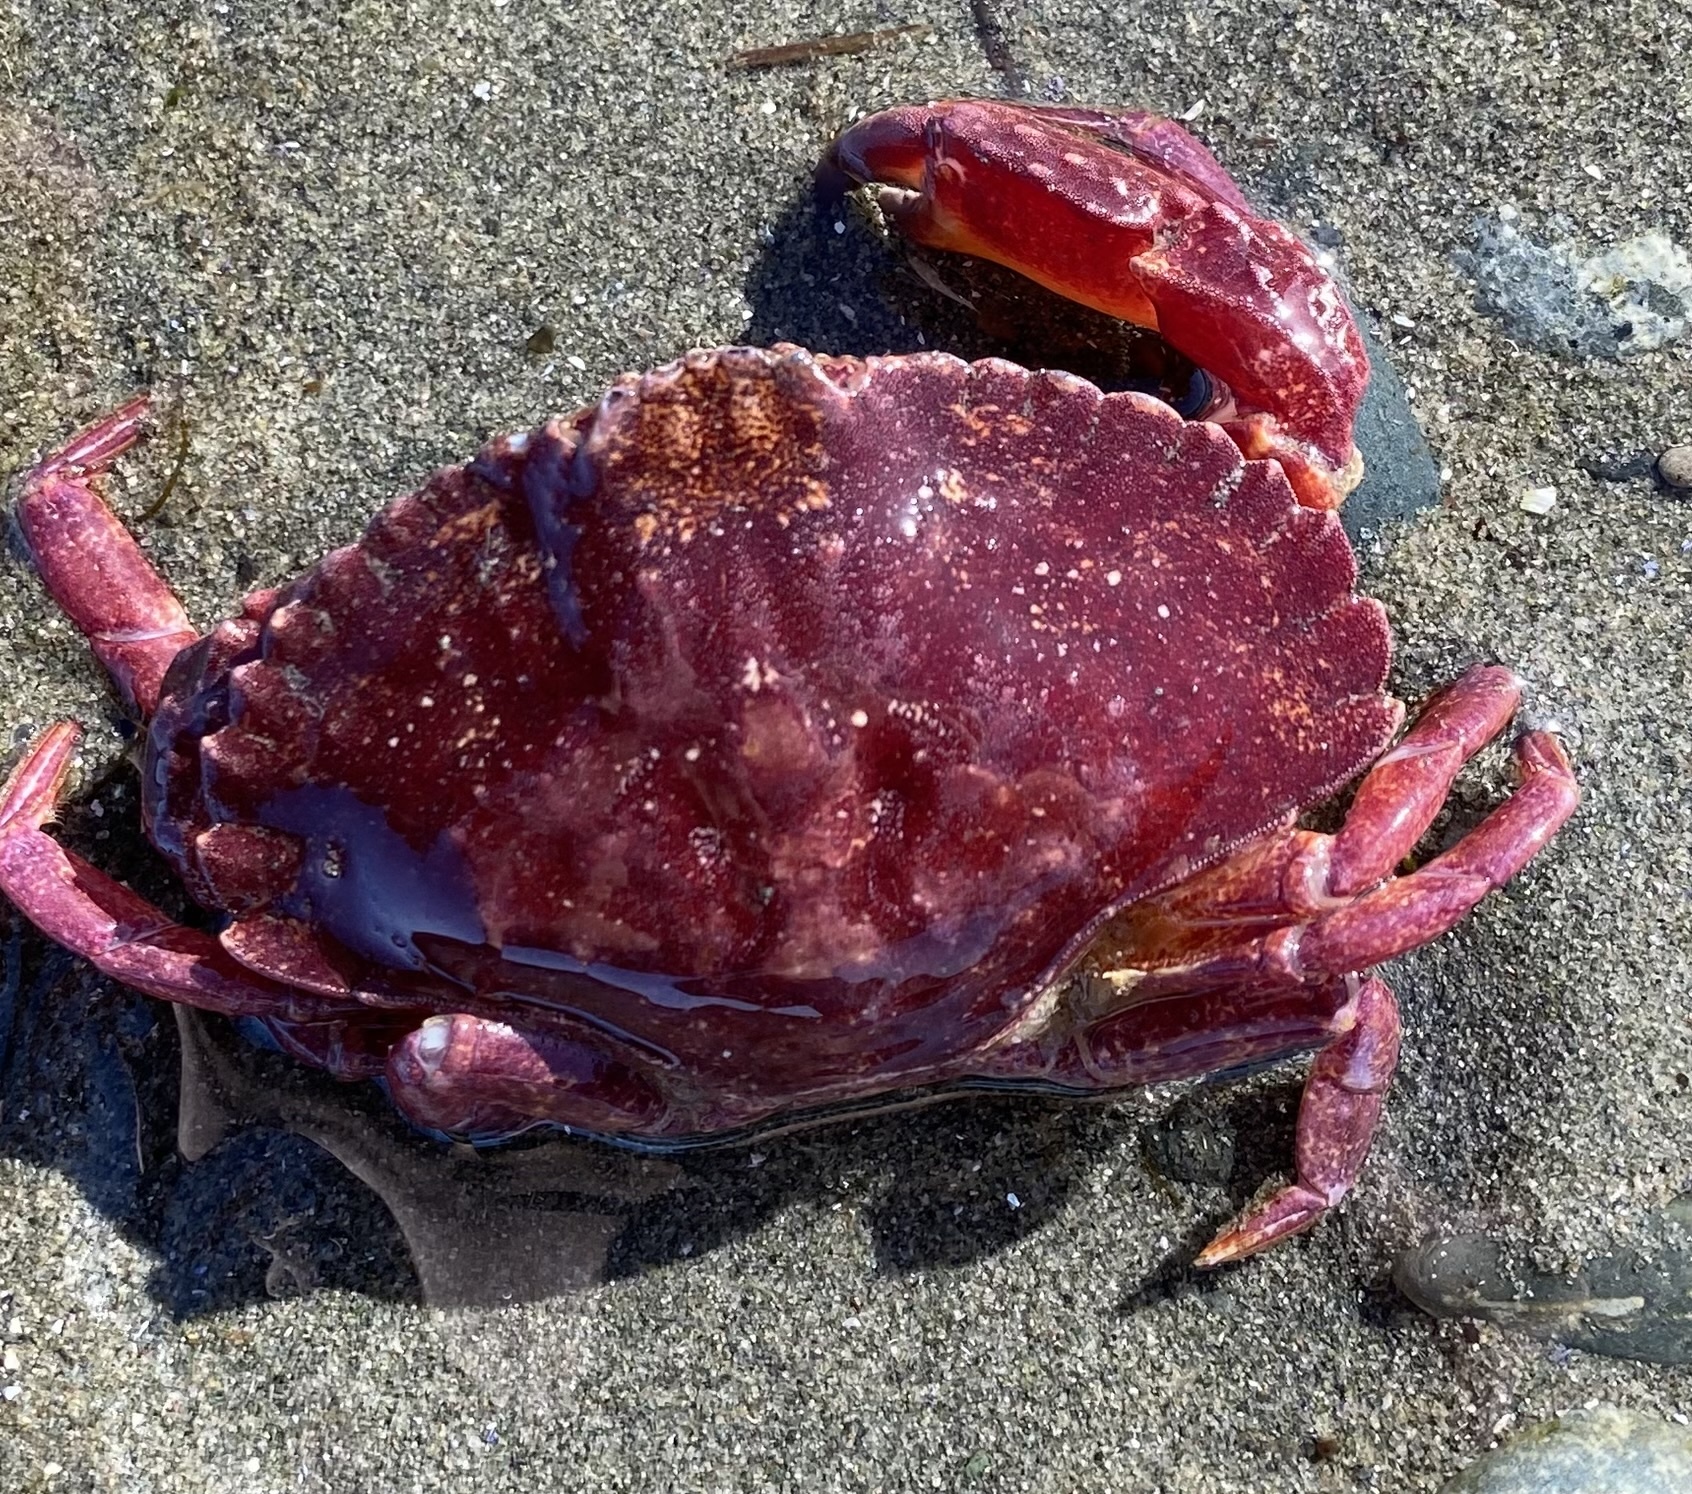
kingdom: Animalia
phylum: Arthropoda
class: Malacostraca
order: Decapoda
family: Cancridae
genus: Cancer
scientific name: Cancer productus
